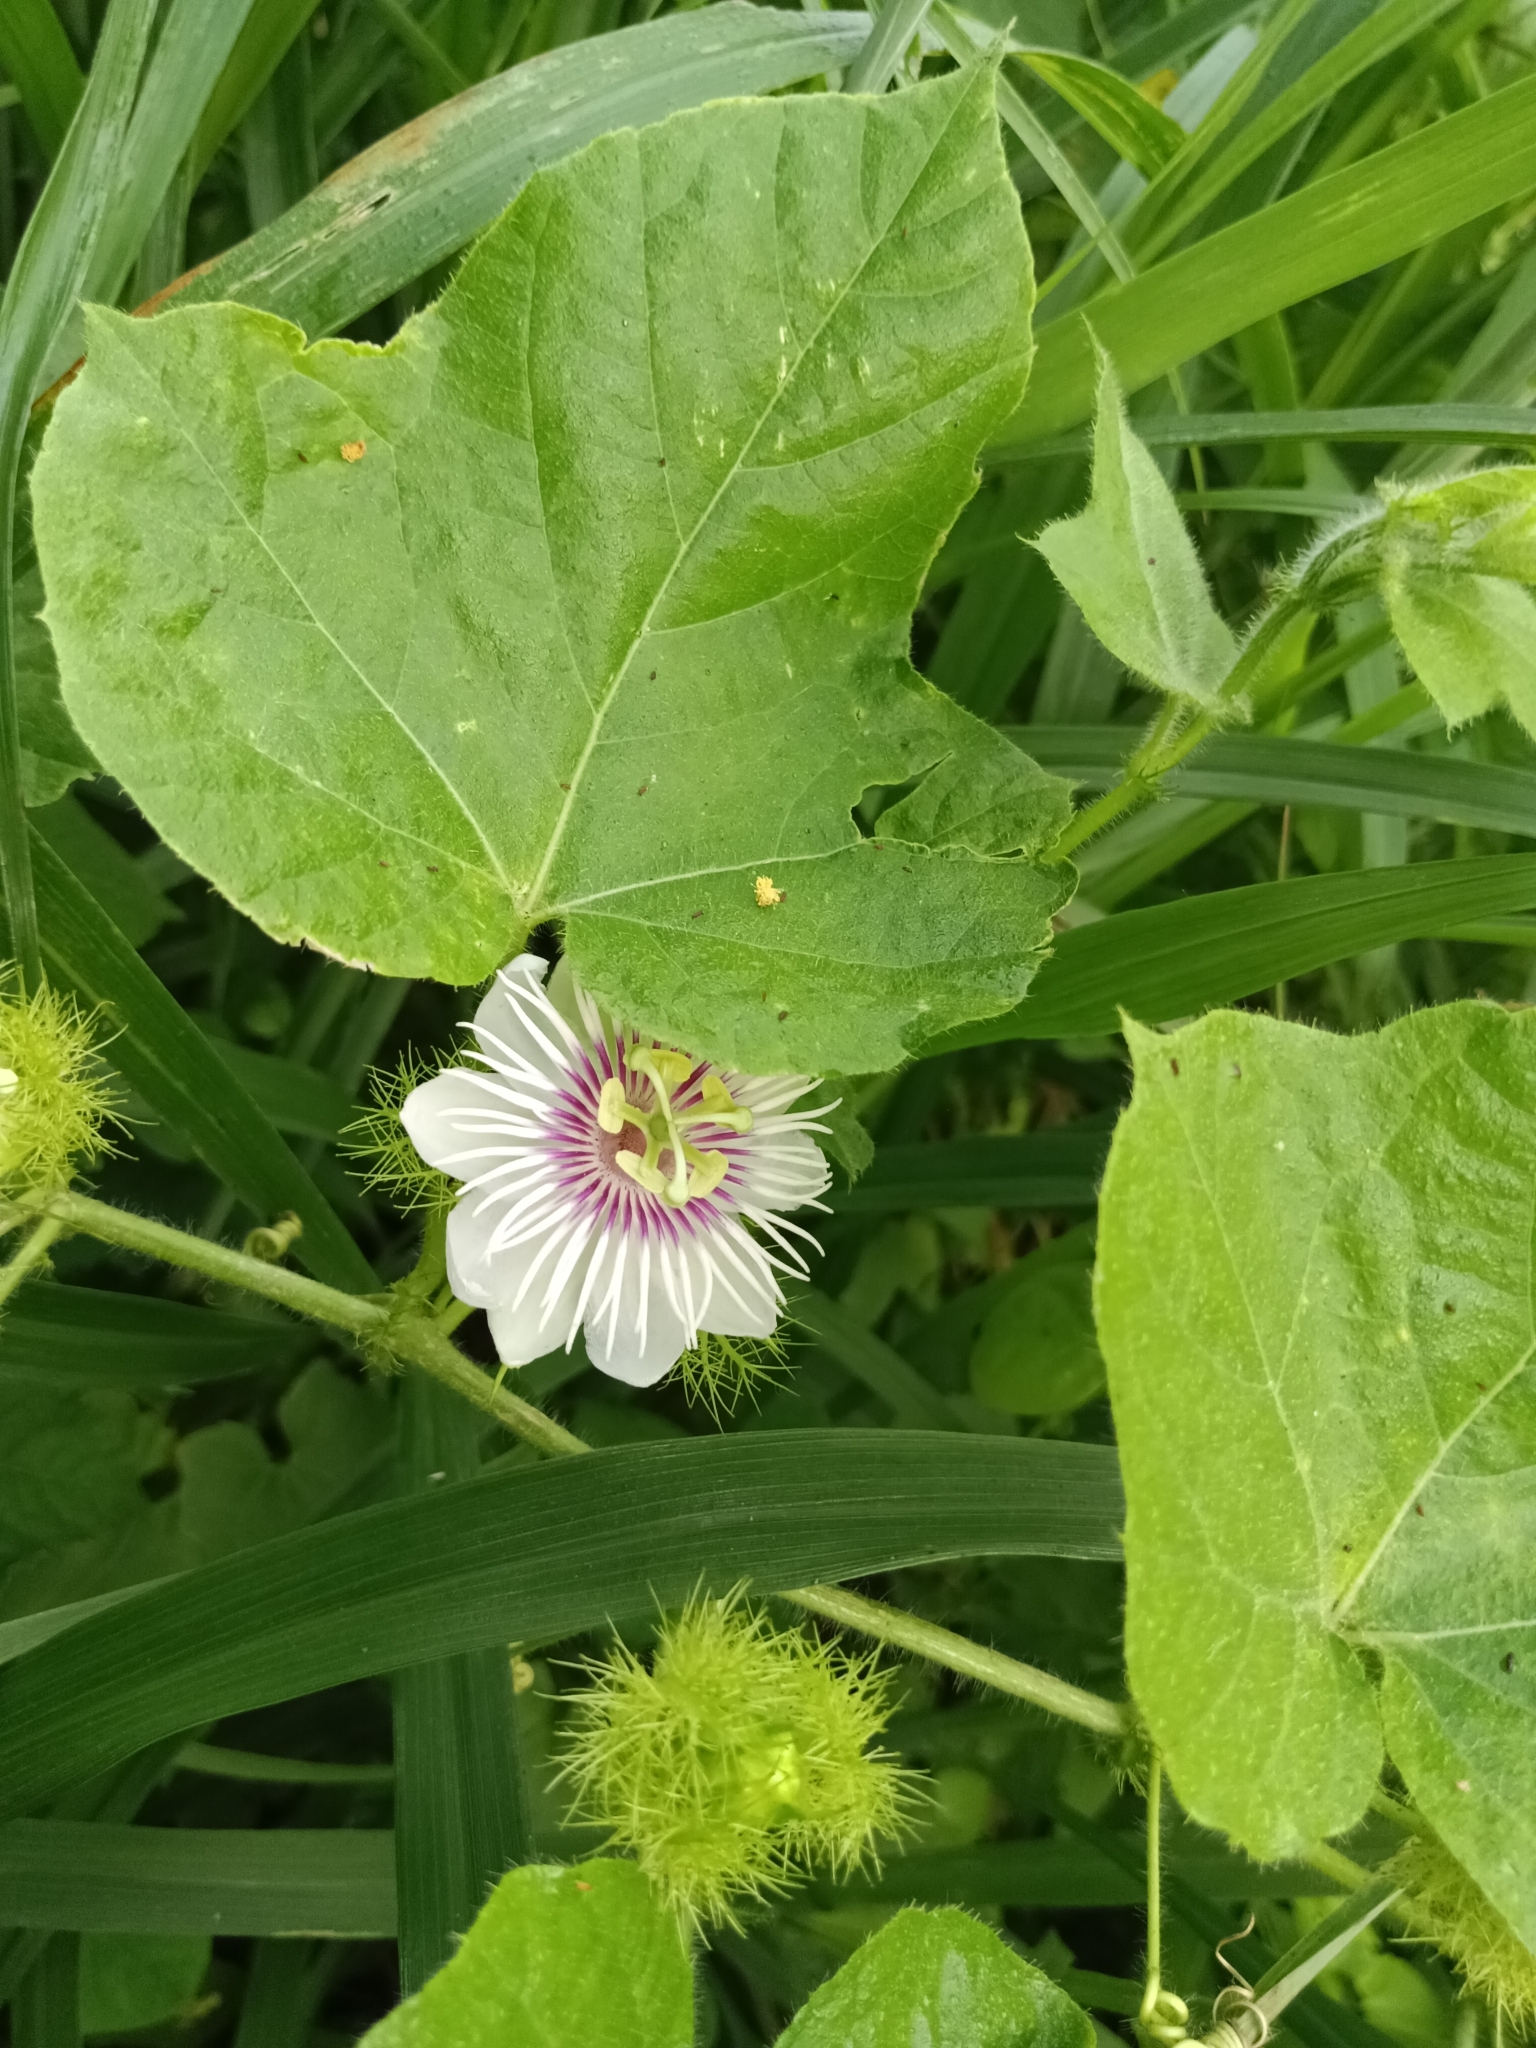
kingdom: Plantae
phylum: Tracheophyta
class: Magnoliopsida
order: Malpighiales
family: Passifloraceae
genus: Passiflora
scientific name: Passiflora vesicaria
